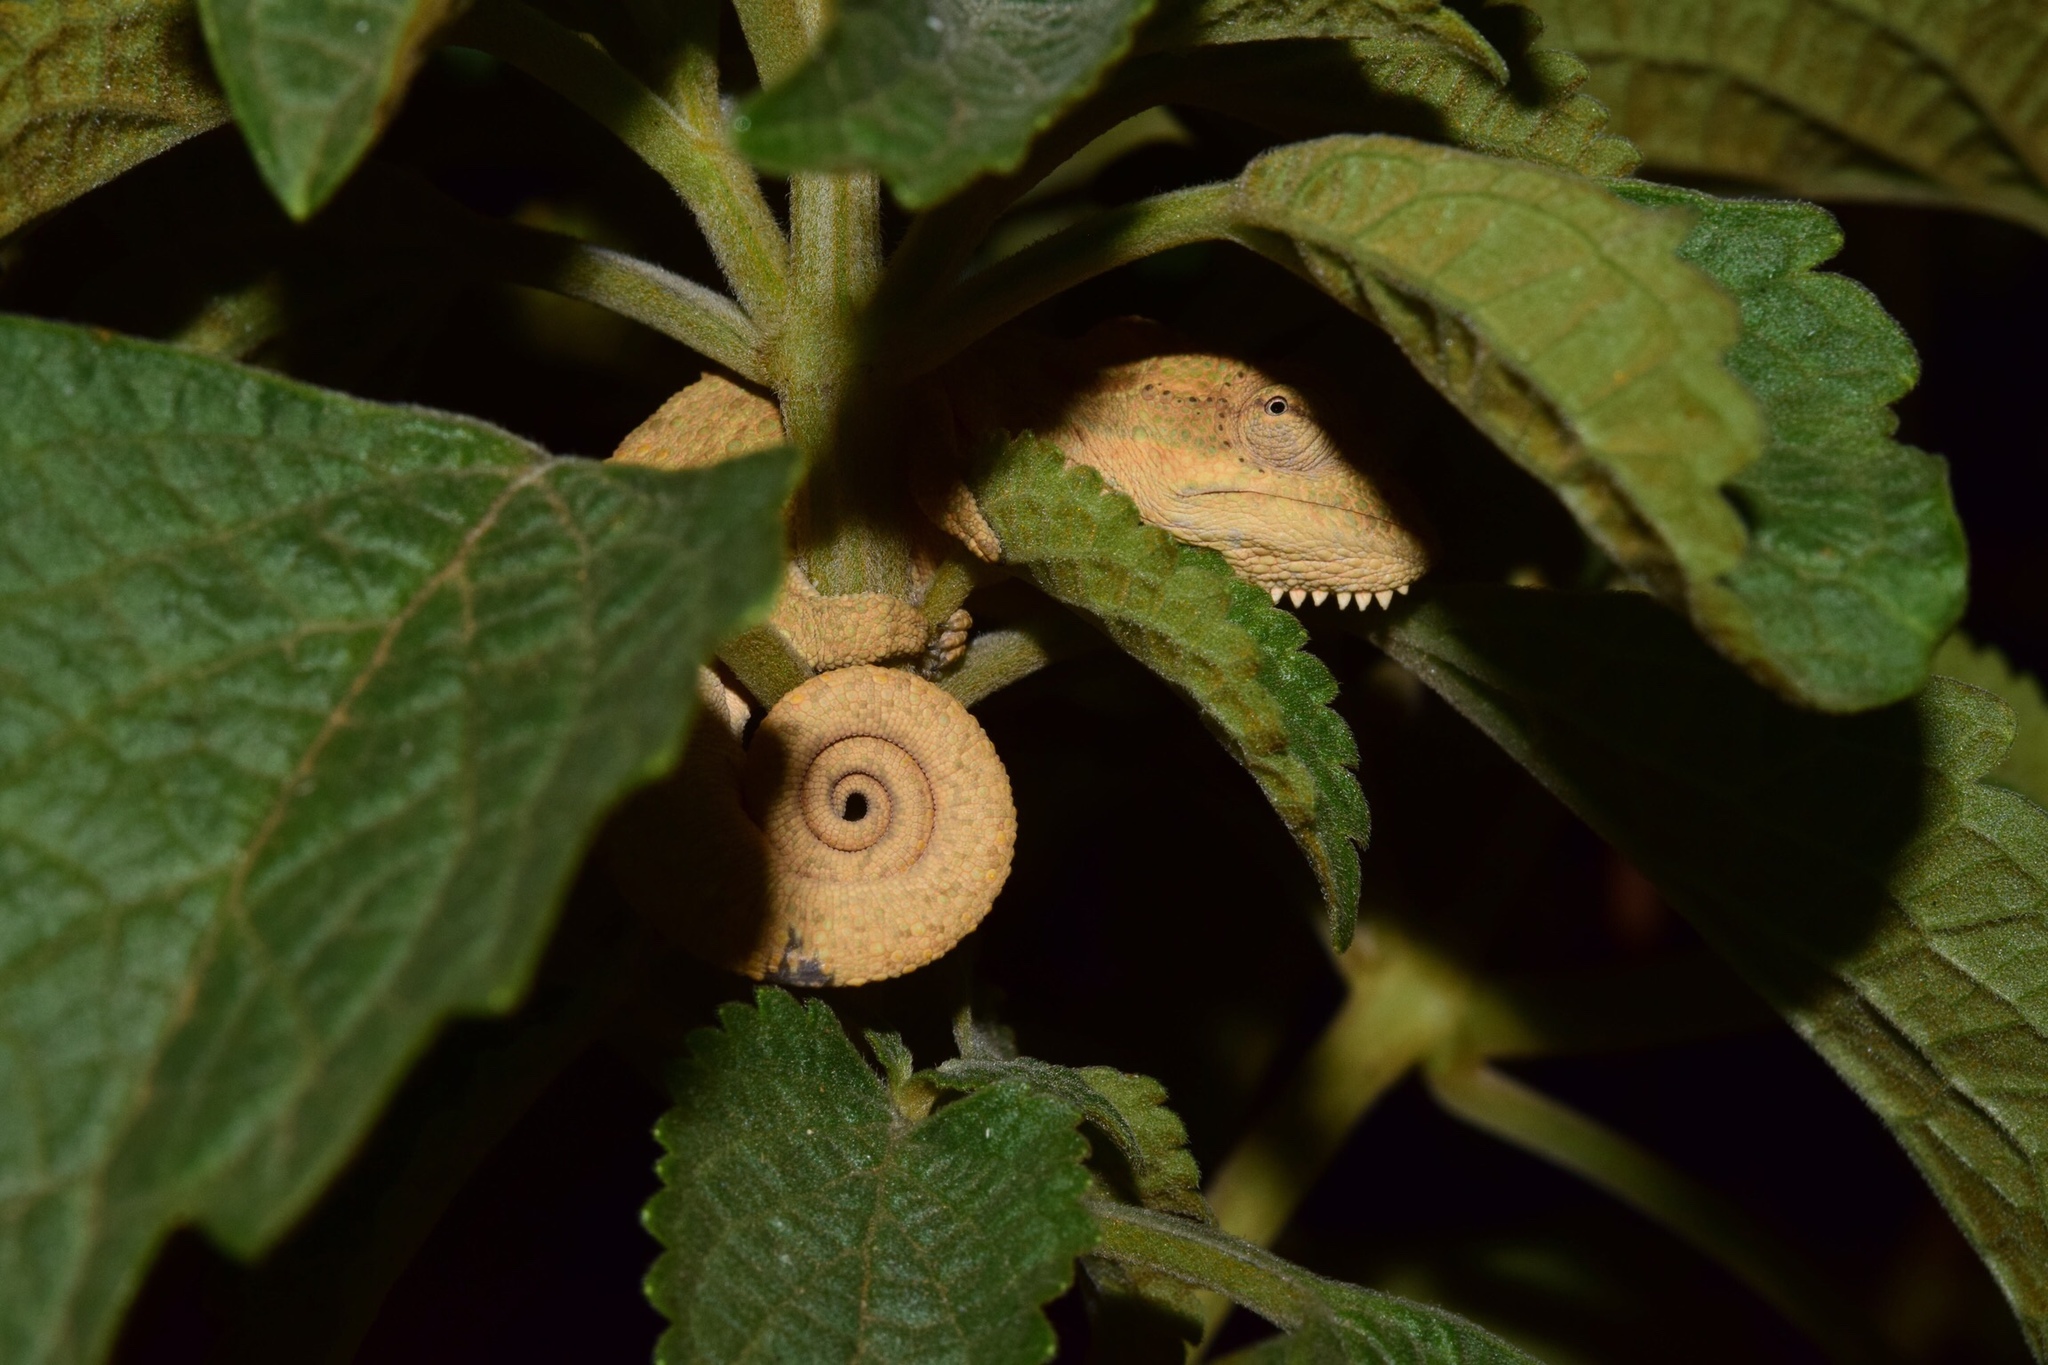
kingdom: Animalia
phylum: Chordata
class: Squamata
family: Chamaeleonidae
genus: Bradypodion
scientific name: Bradypodion melanocephalum
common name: Black-headed dwarf chameleon
